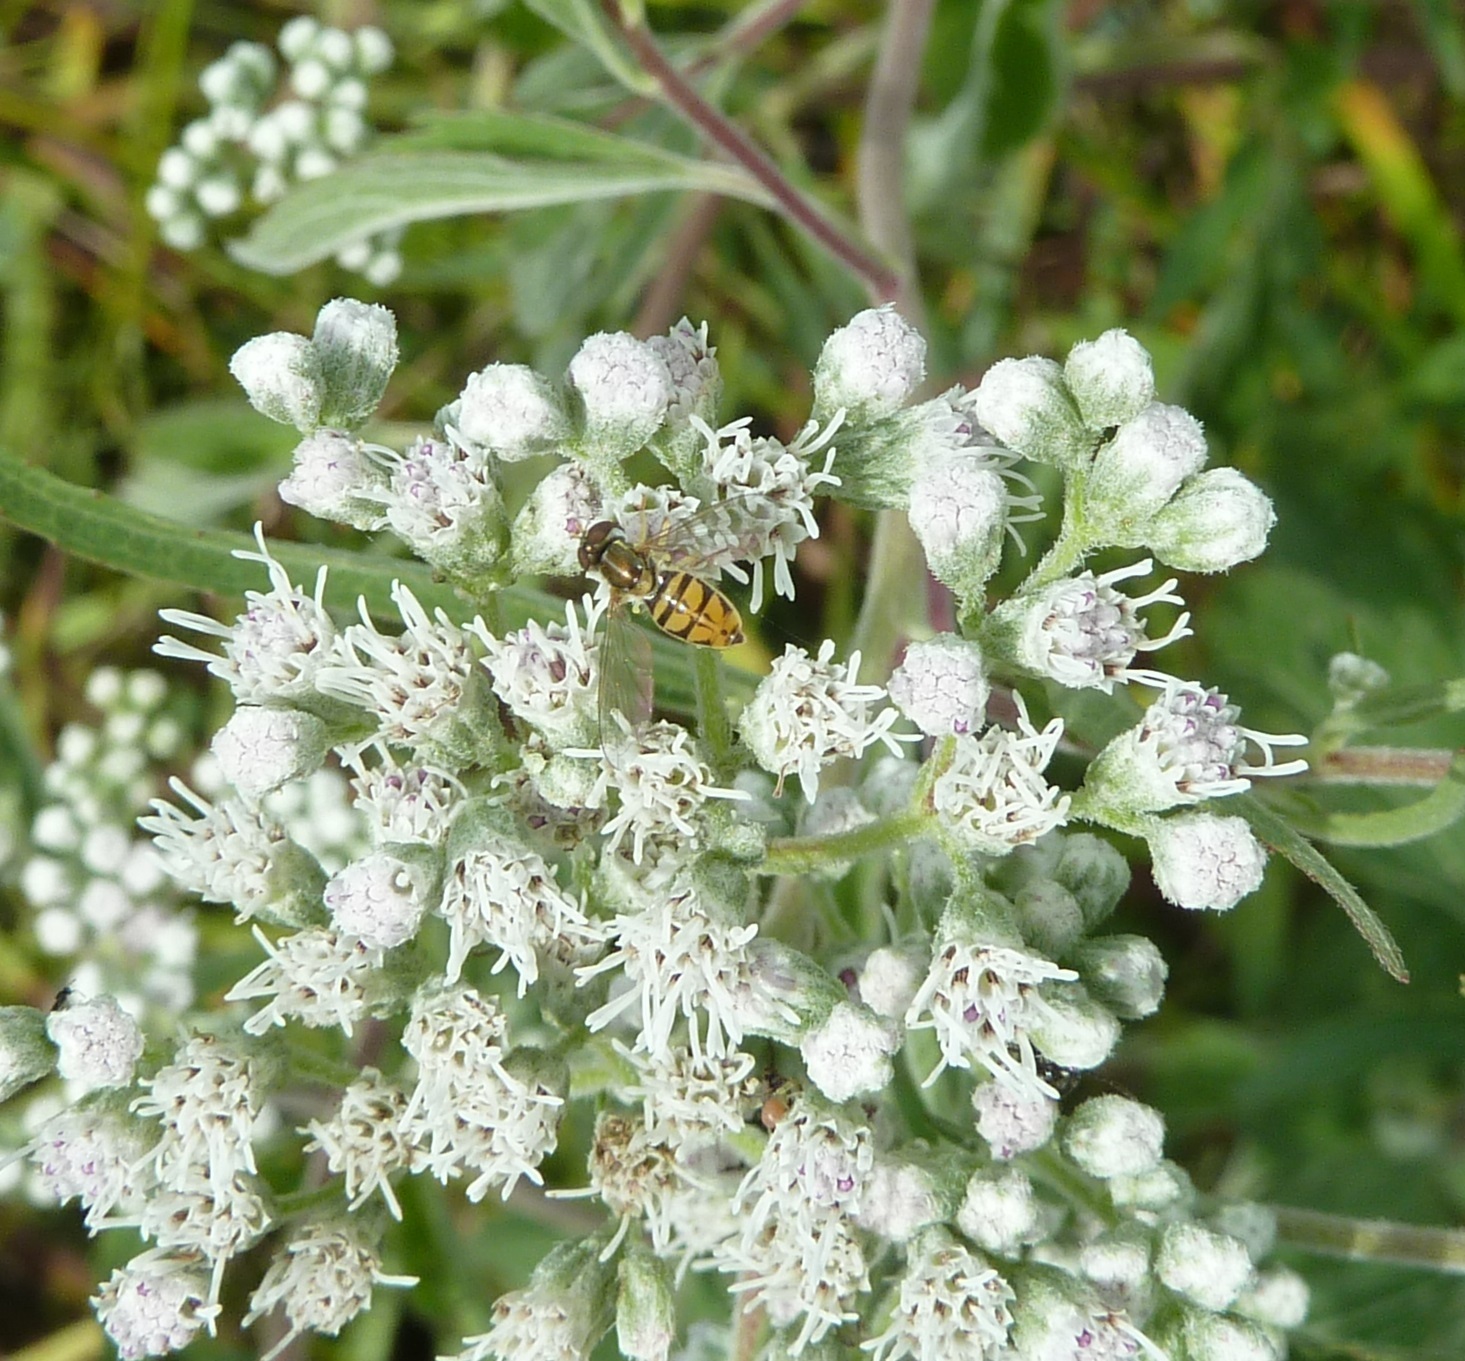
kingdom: Animalia
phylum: Arthropoda
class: Insecta
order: Diptera
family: Syrphidae
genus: Toxomerus
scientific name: Toxomerus marginatus
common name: Syrphid fly
